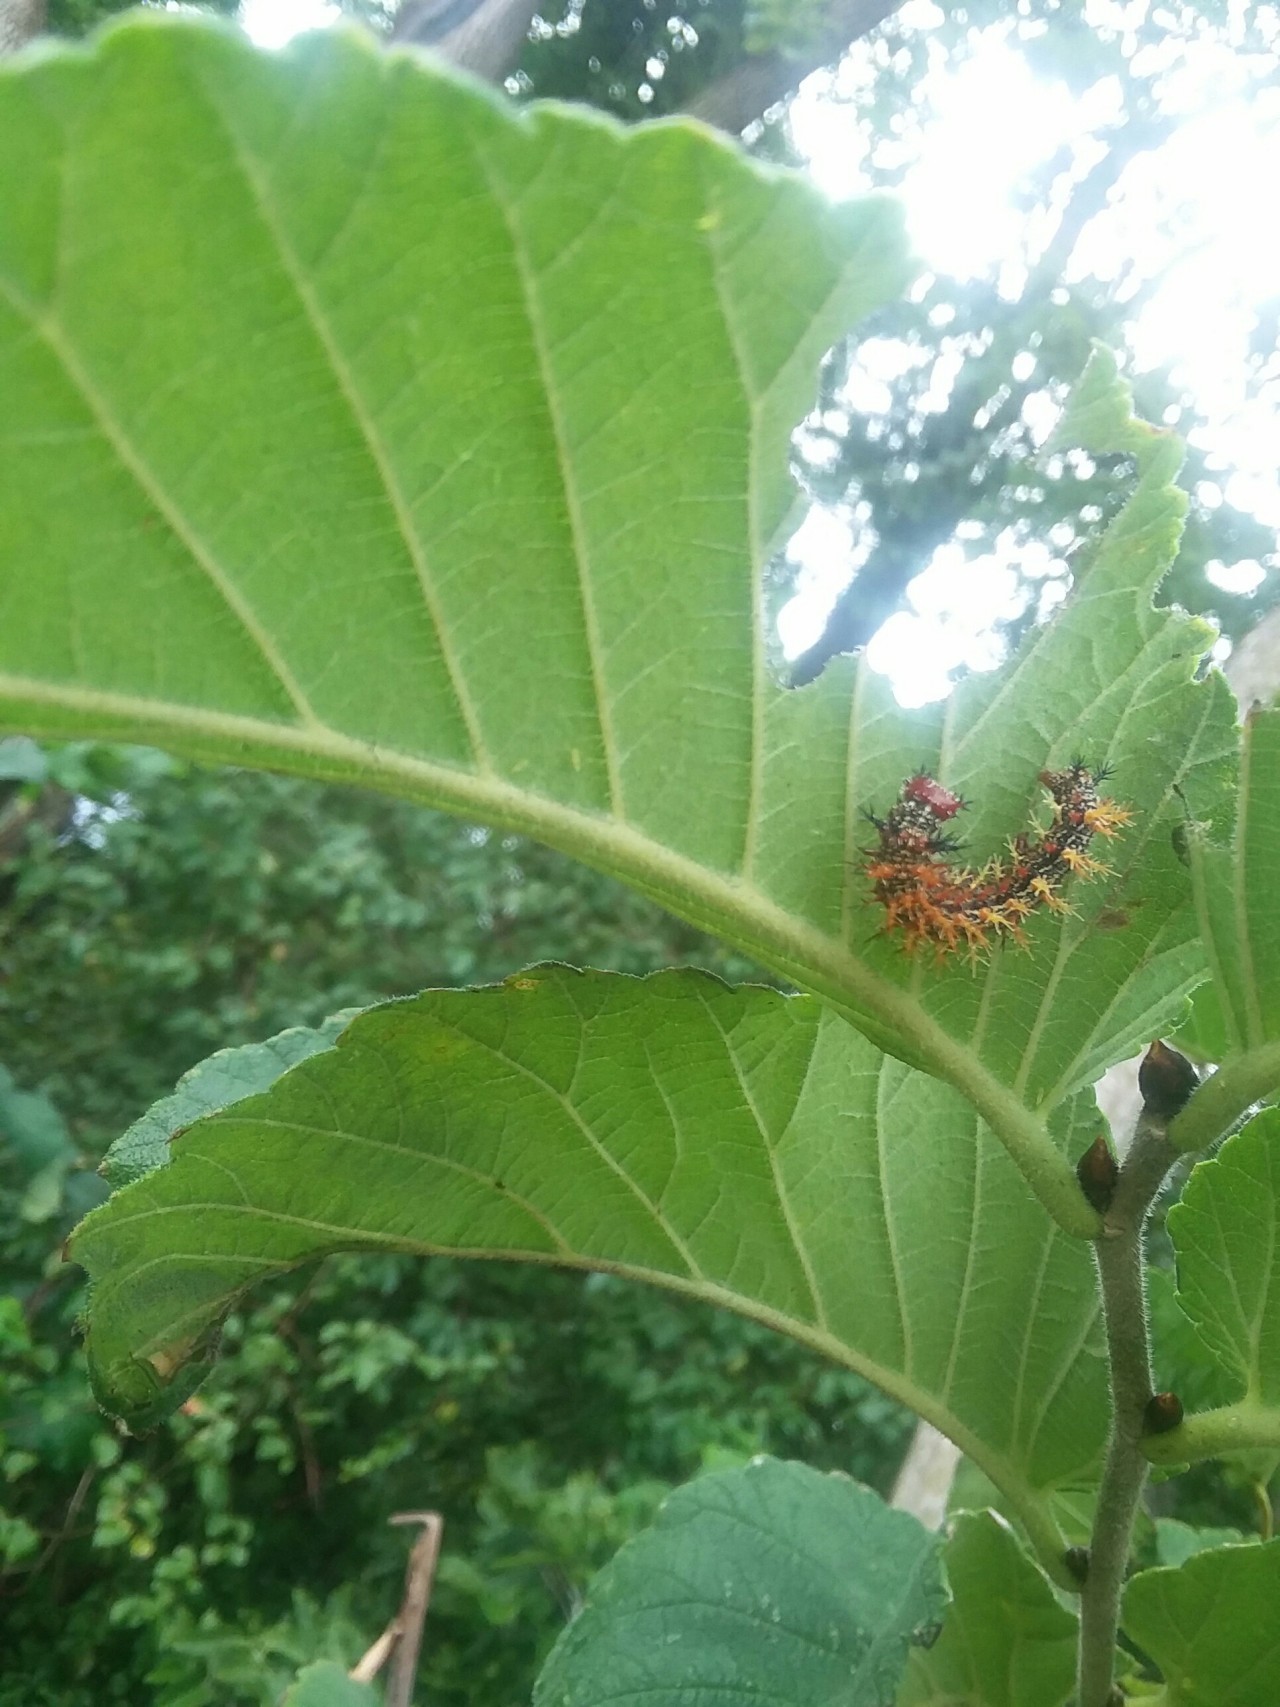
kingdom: Animalia
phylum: Arthropoda
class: Insecta
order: Lepidoptera
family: Nymphalidae
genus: Polygonia
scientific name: Polygonia interrogationis
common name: Question mark
